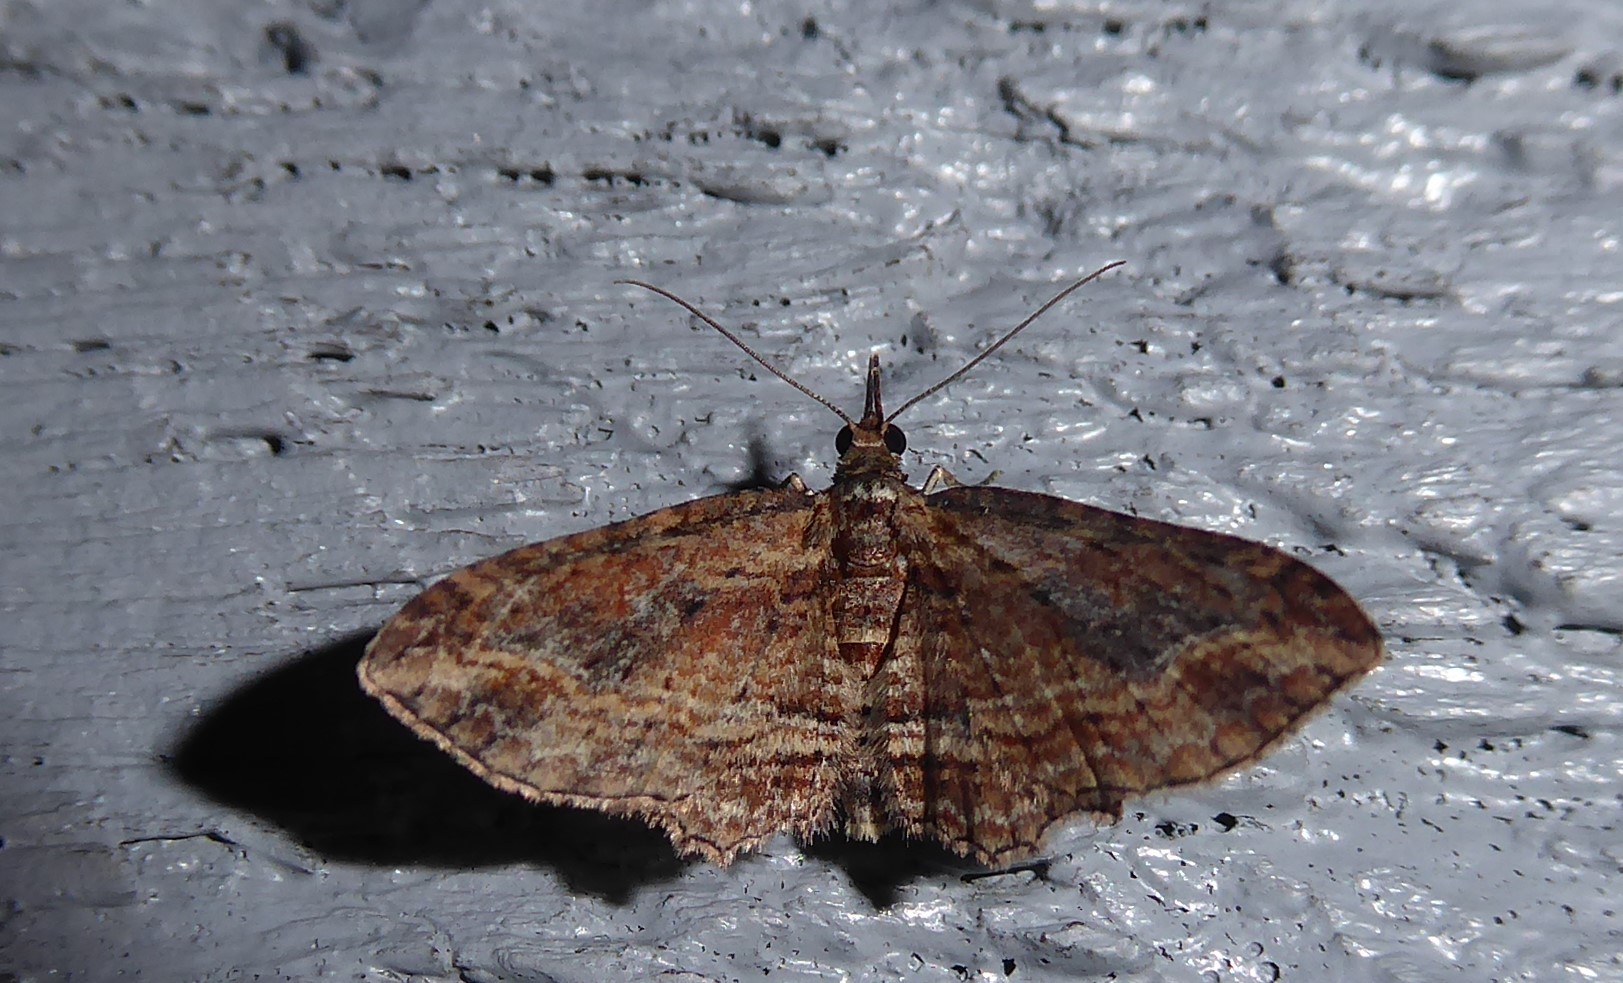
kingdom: Animalia
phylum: Arthropoda
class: Insecta
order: Lepidoptera
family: Geometridae
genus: Chloroclystis
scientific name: Chloroclystis filata
